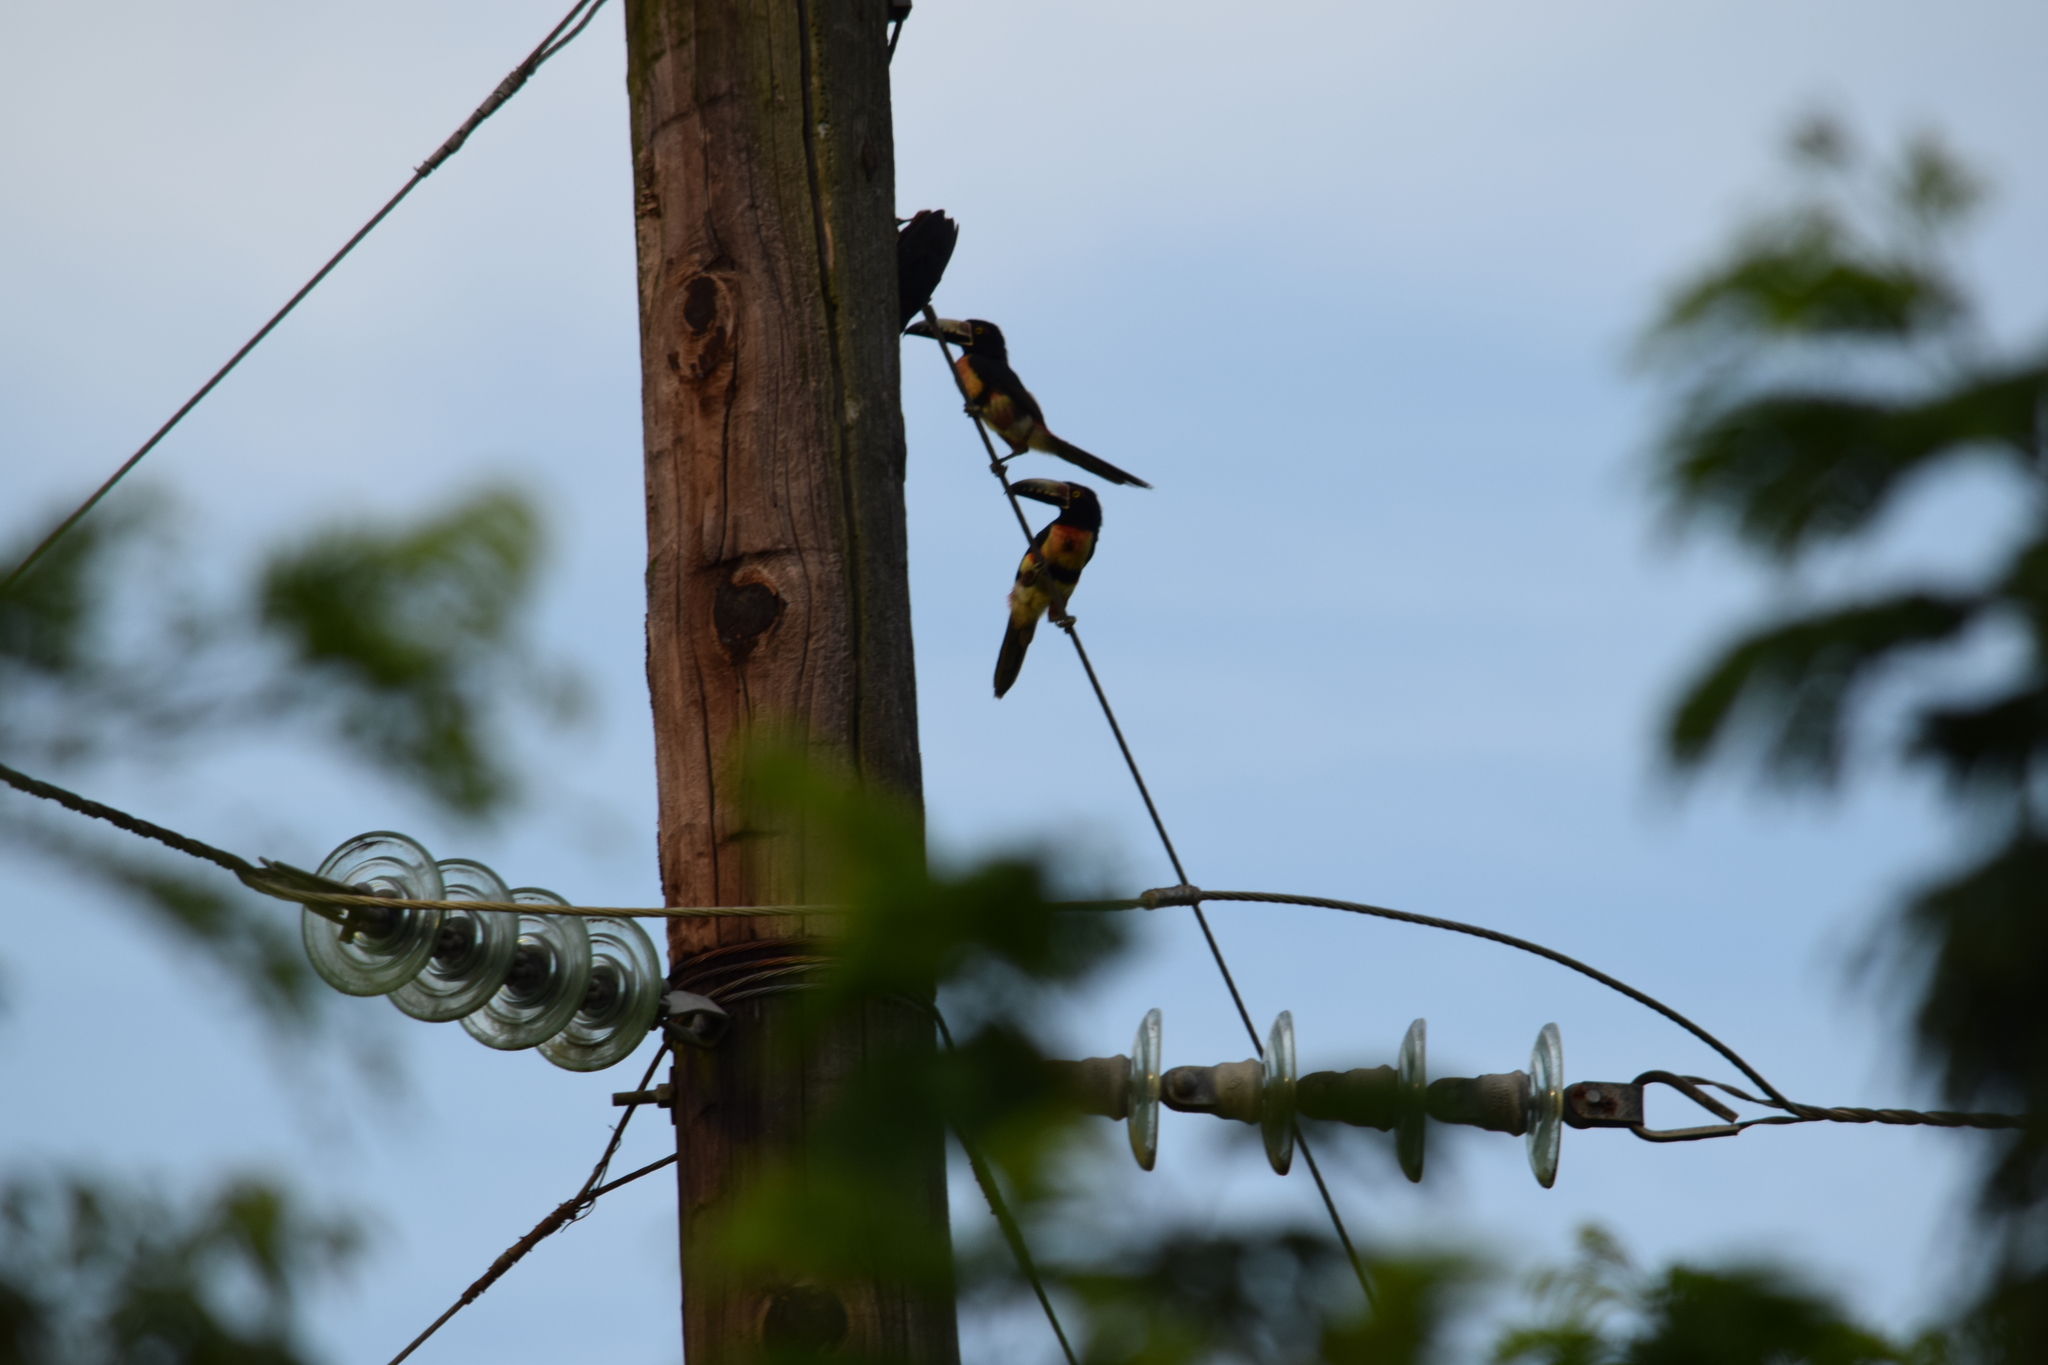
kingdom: Animalia
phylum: Chordata
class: Aves
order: Piciformes
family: Ramphastidae
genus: Pteroglossus
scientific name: Pteroglossus torquatus
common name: Collared aracari
